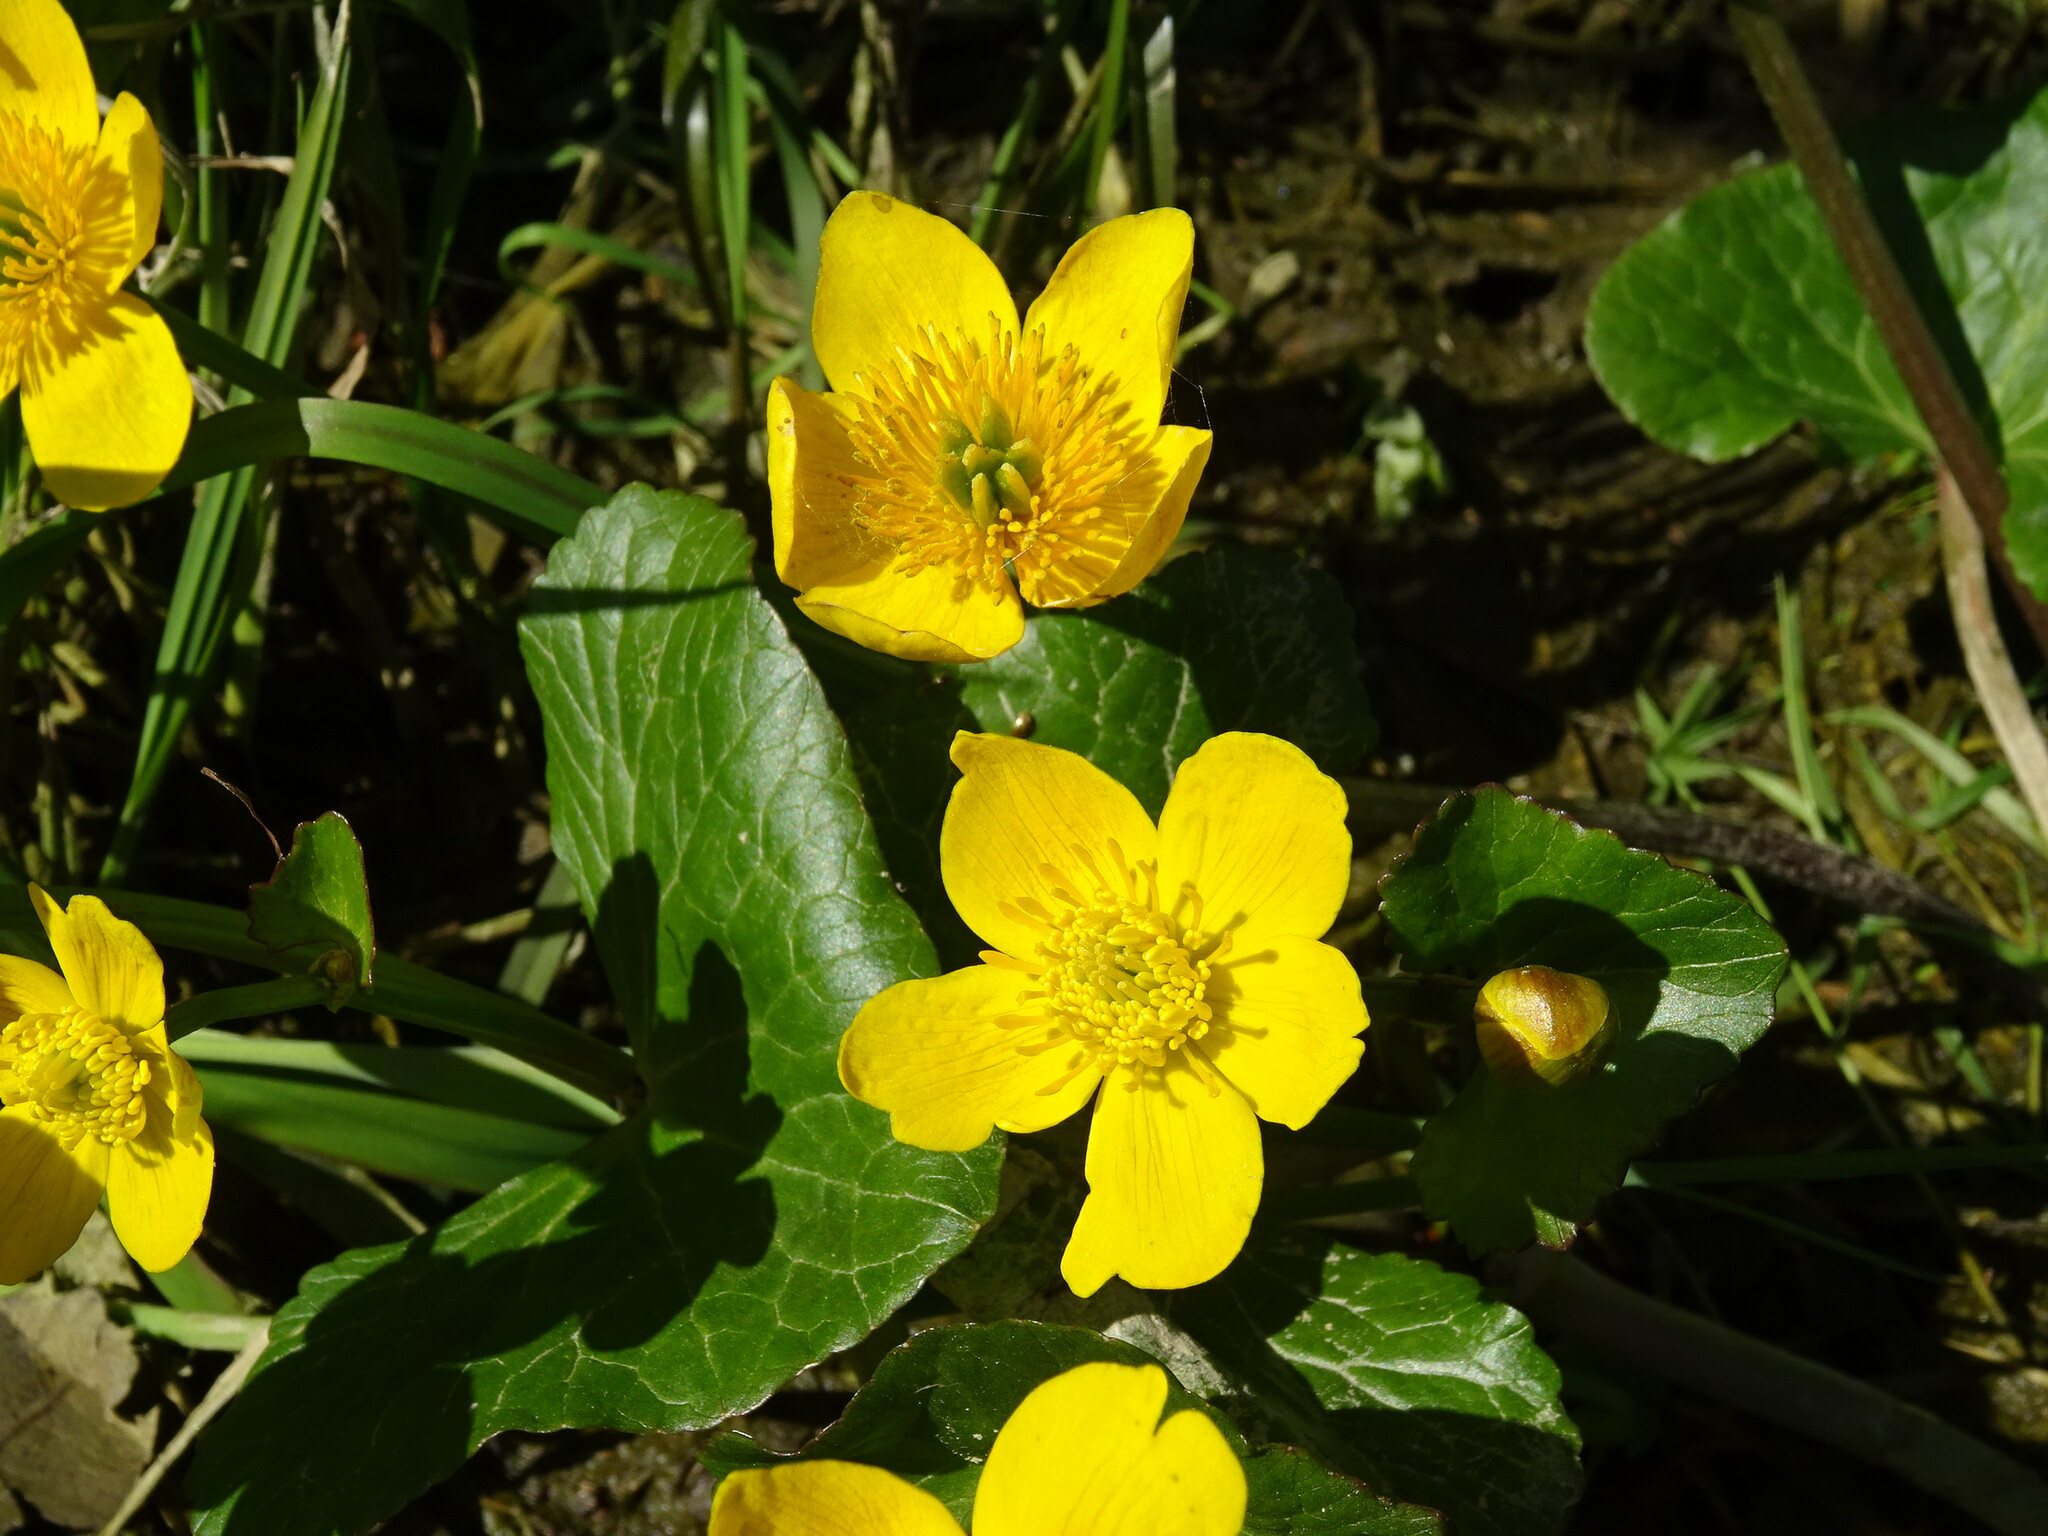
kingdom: Plantae
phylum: Tracheophyta
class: Magnoliopsida
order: Ranunculales
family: Ranunculaceae
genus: Caltha
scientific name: Caltha palustris
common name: Marsh marigold
